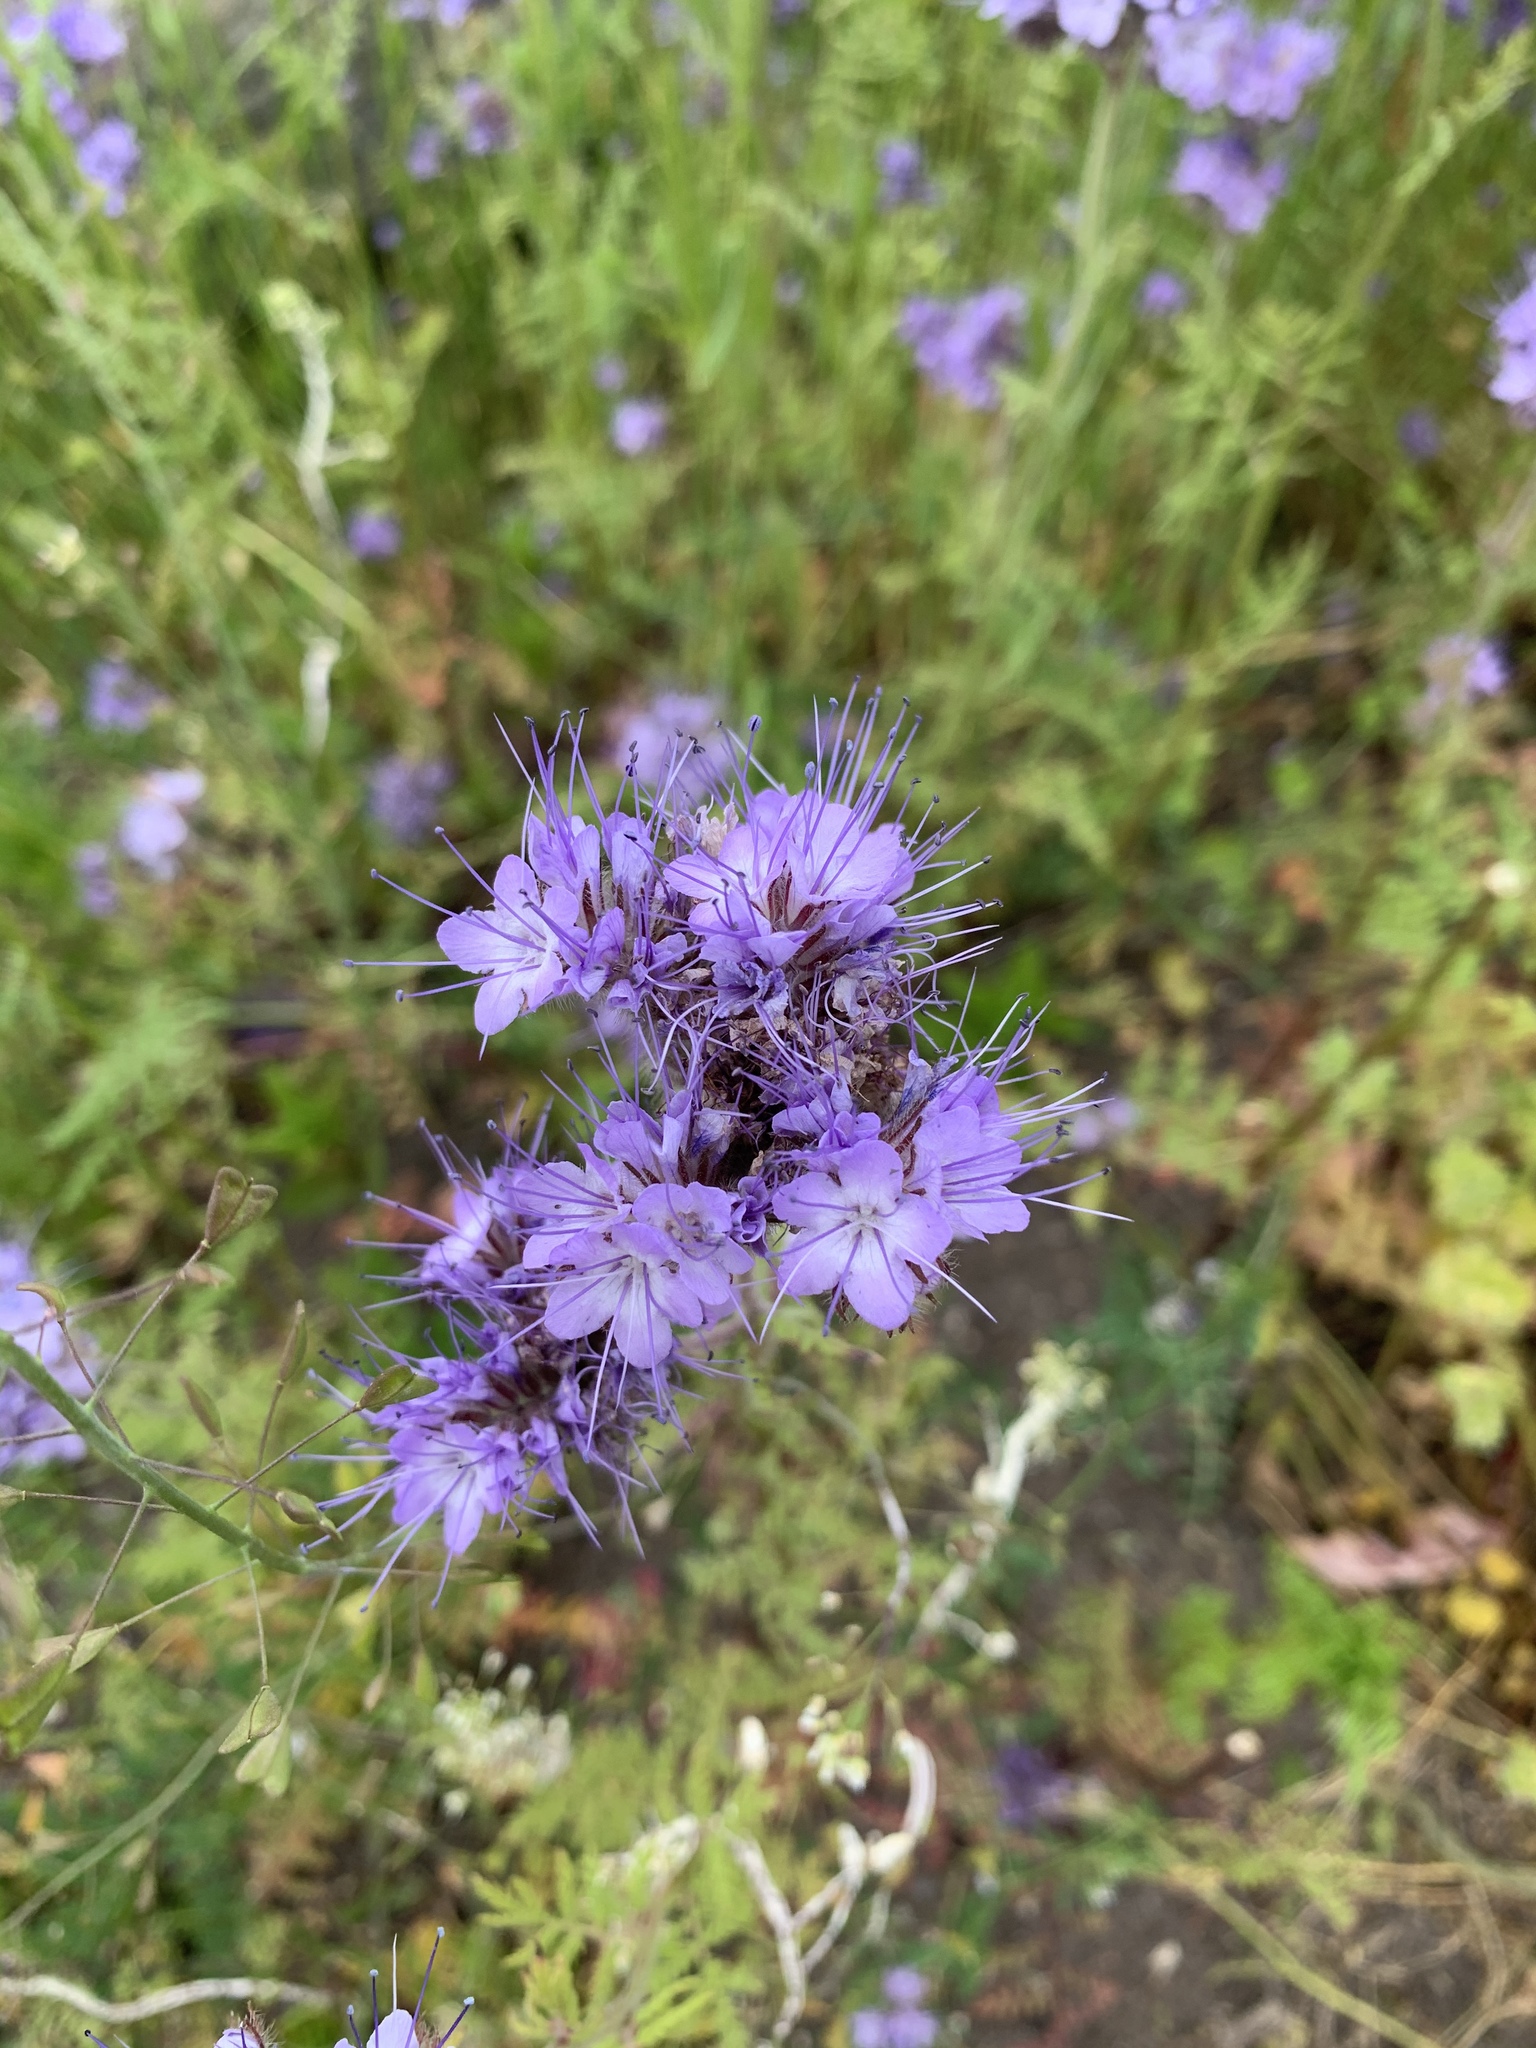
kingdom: Plantae
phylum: Tracheophyta
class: Magnoliopsida
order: Boraginales
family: Hydrophyllaceae
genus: Phacelia
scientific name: Phacelia tanacetifolia
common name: Phacelia
